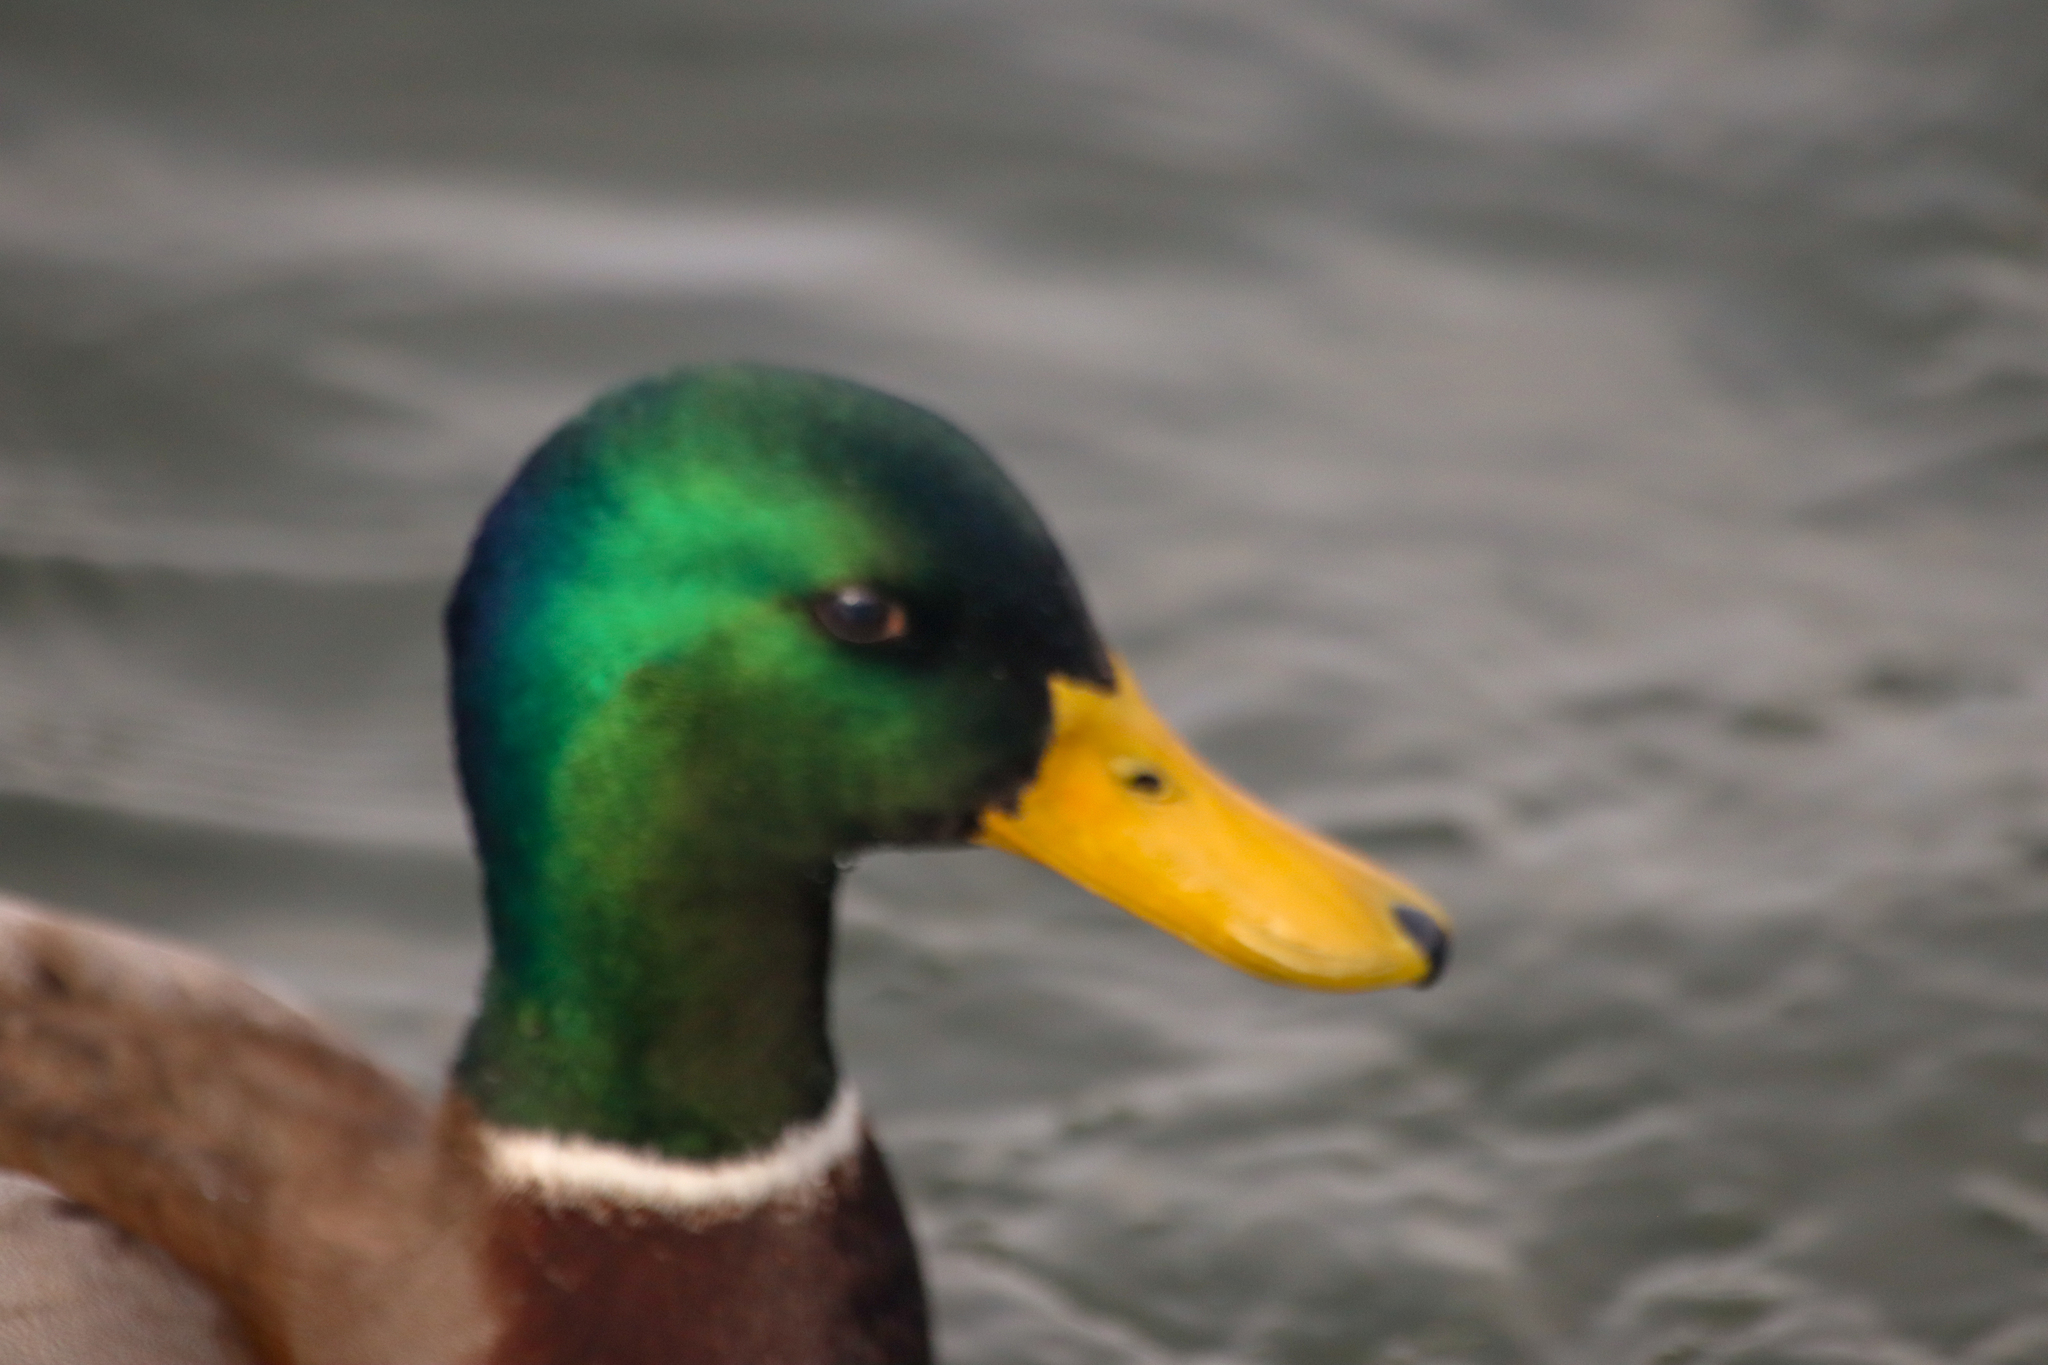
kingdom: Animalia
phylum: Chordata
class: Aves
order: Anseriformes
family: Anatidae
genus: Anas
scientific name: Anas platyrhynchos
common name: Mallard
